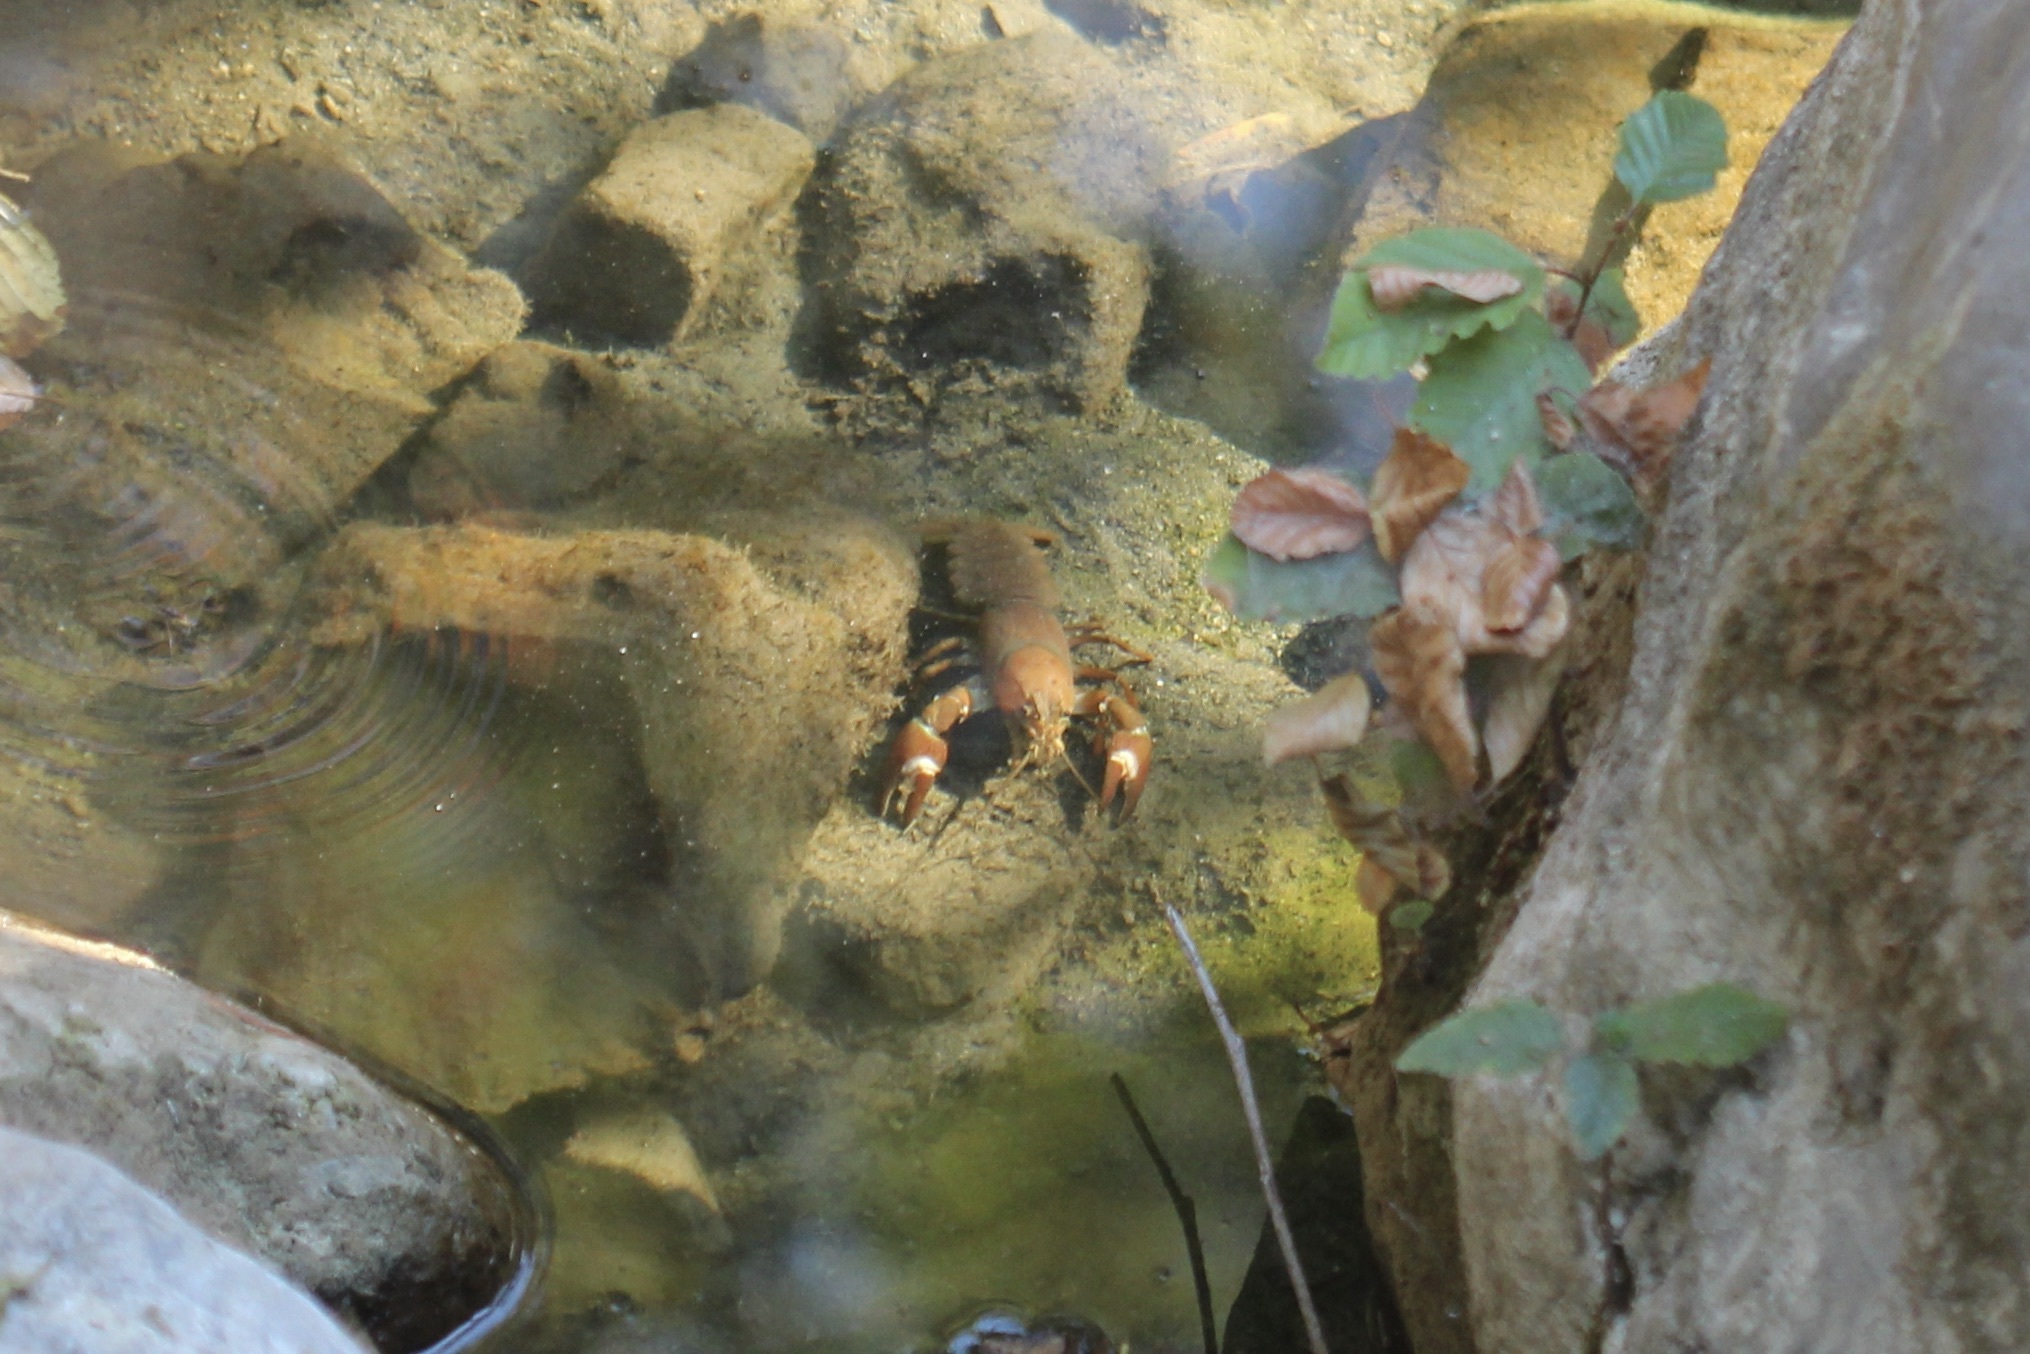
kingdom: Animalia
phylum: Arthropoda
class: Malacostraca
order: Decapoda
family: Astacidae
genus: Pacifastacus
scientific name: Pacifastacus leniusculus
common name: Signal crayfish
